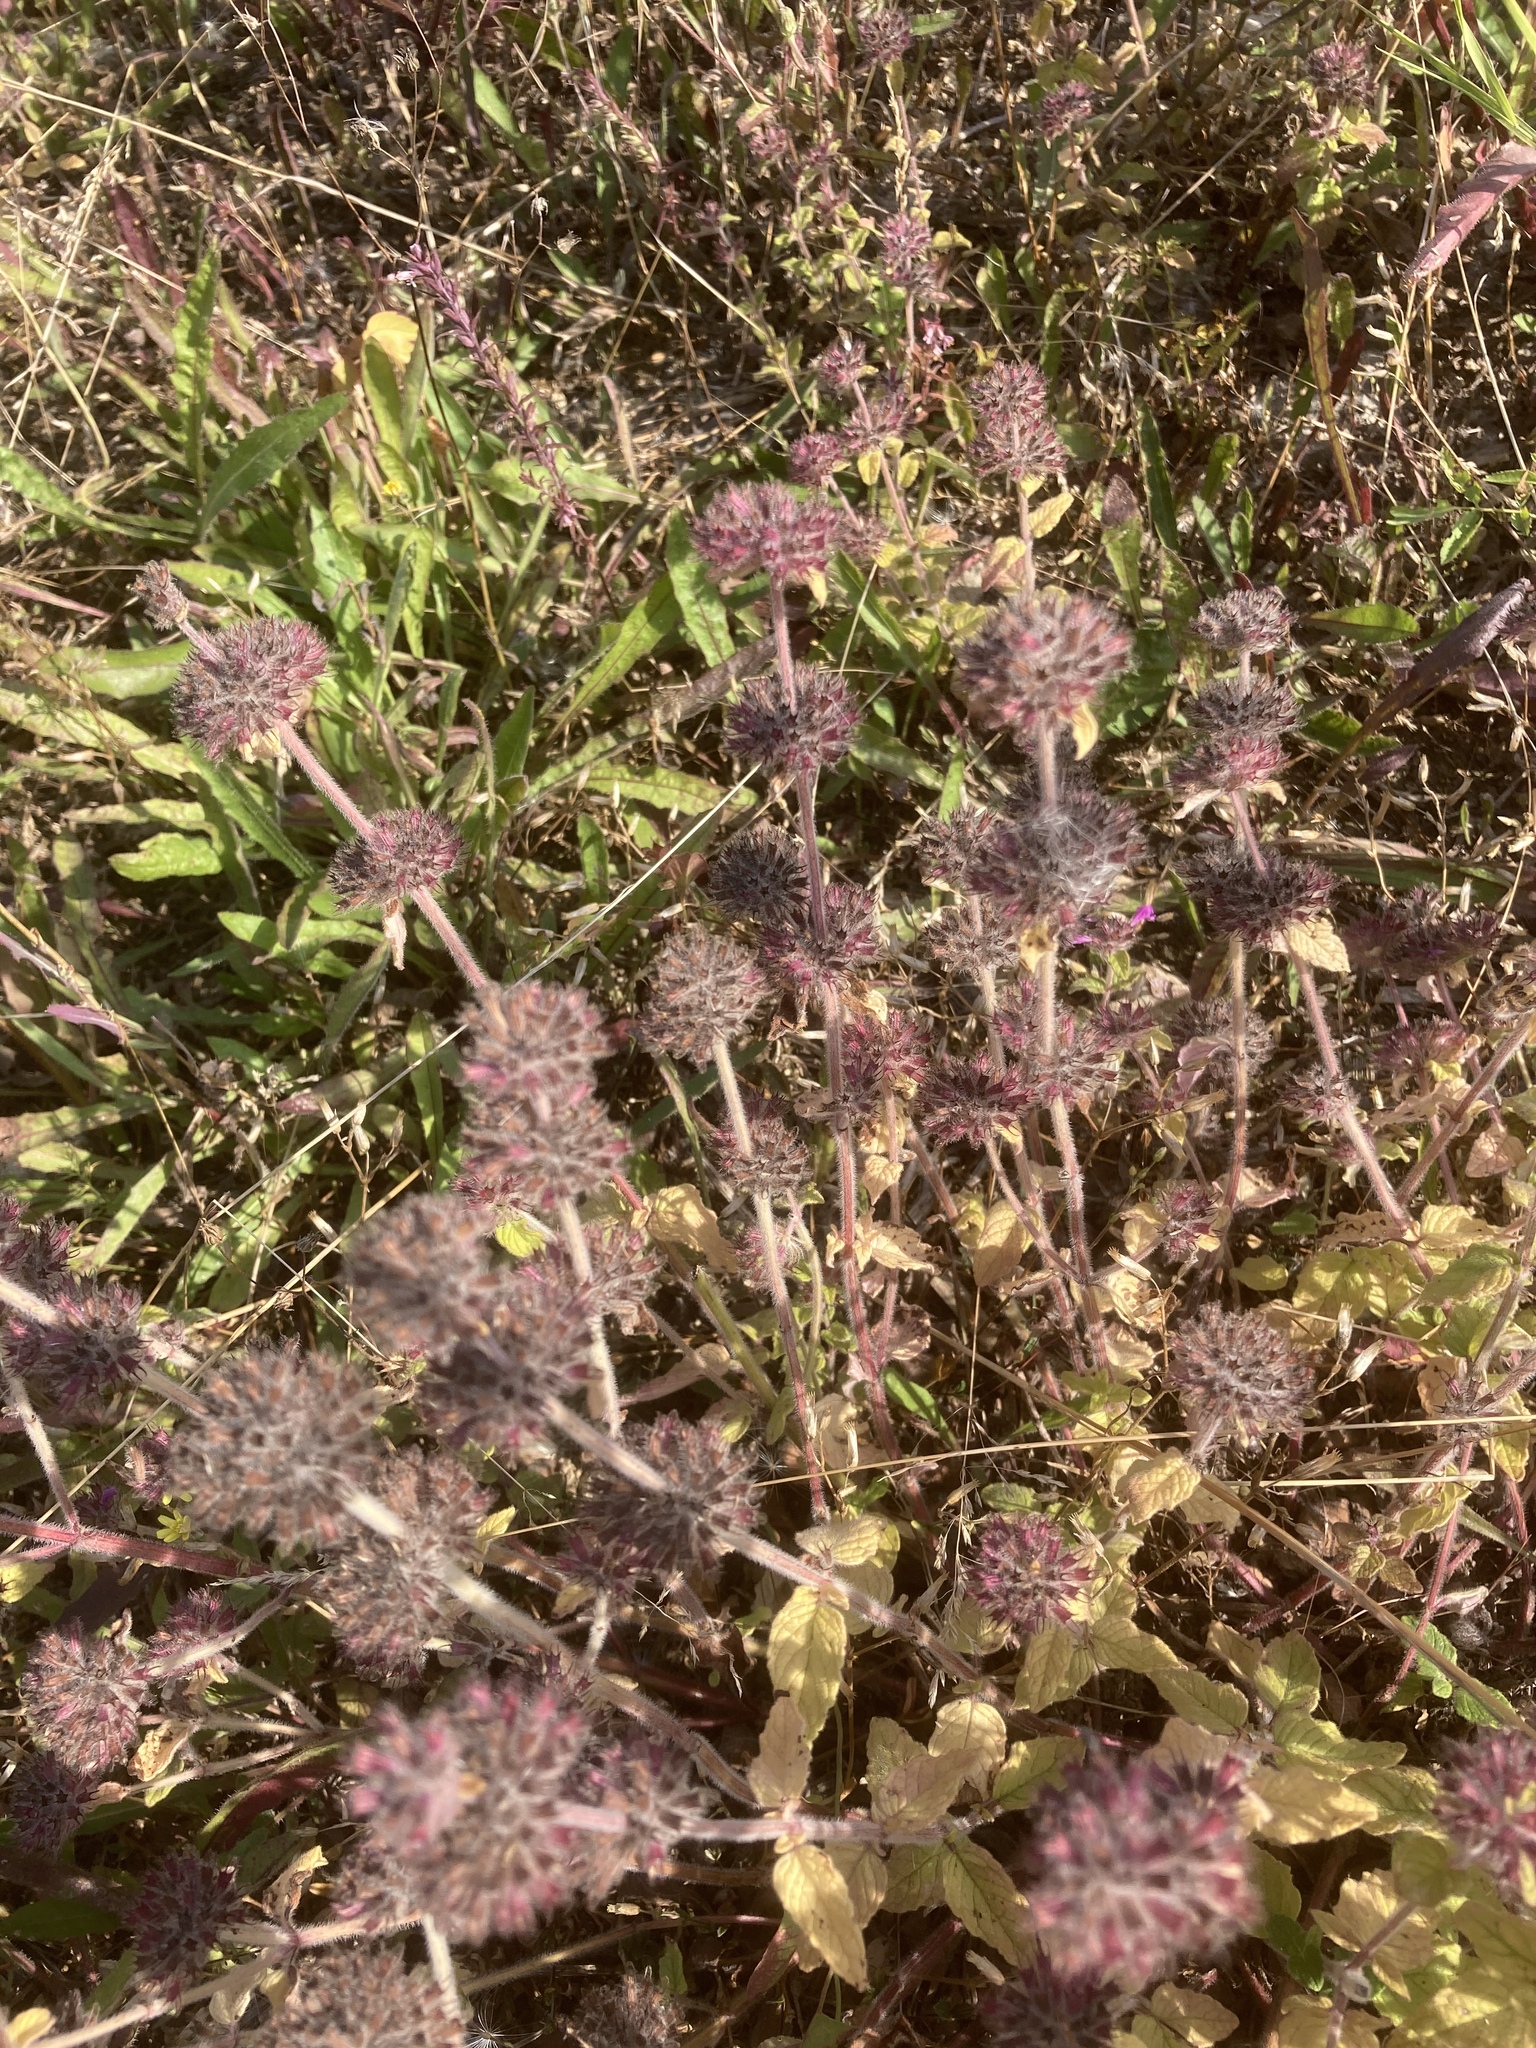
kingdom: Plantae
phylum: Tracheophyta
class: Magnoliopsida
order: Lamiales
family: Lamiaceae
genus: Clinopodium
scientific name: Clinopodium vulgare
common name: Wild basil
